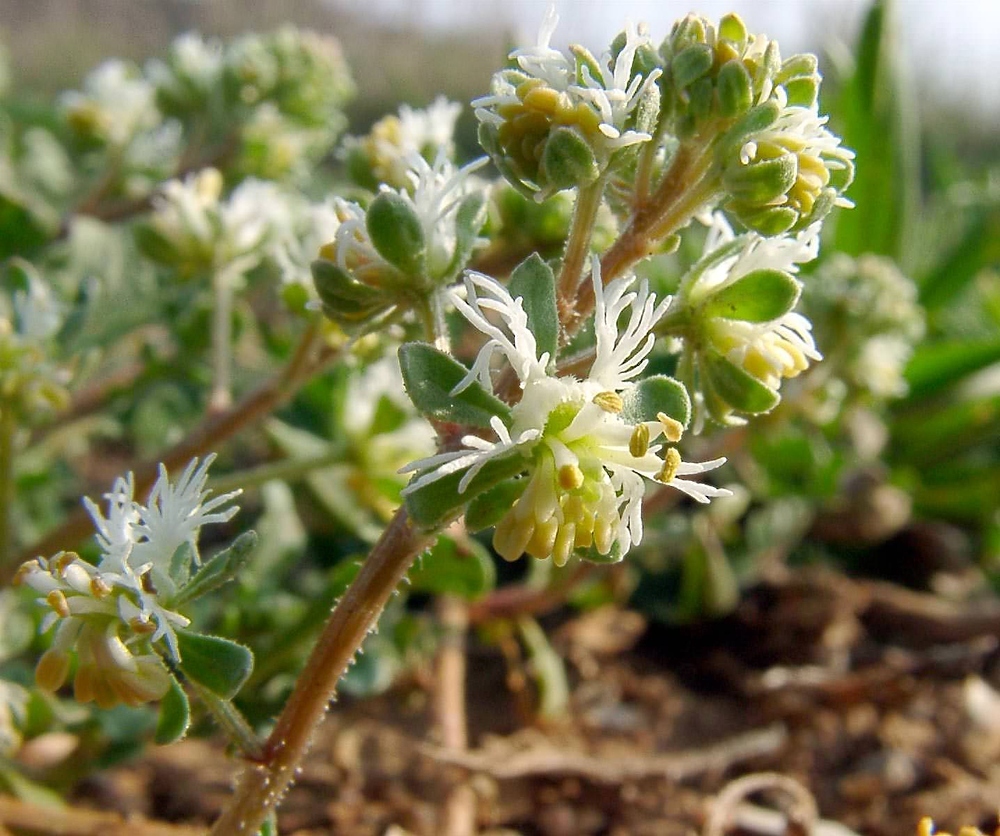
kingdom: Plantae
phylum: Tracheophyta
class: Magnoliopsida
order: Brassicales
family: Resedaceae
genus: Reseda
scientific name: Reseda phyteuma
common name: Corn mignonette
